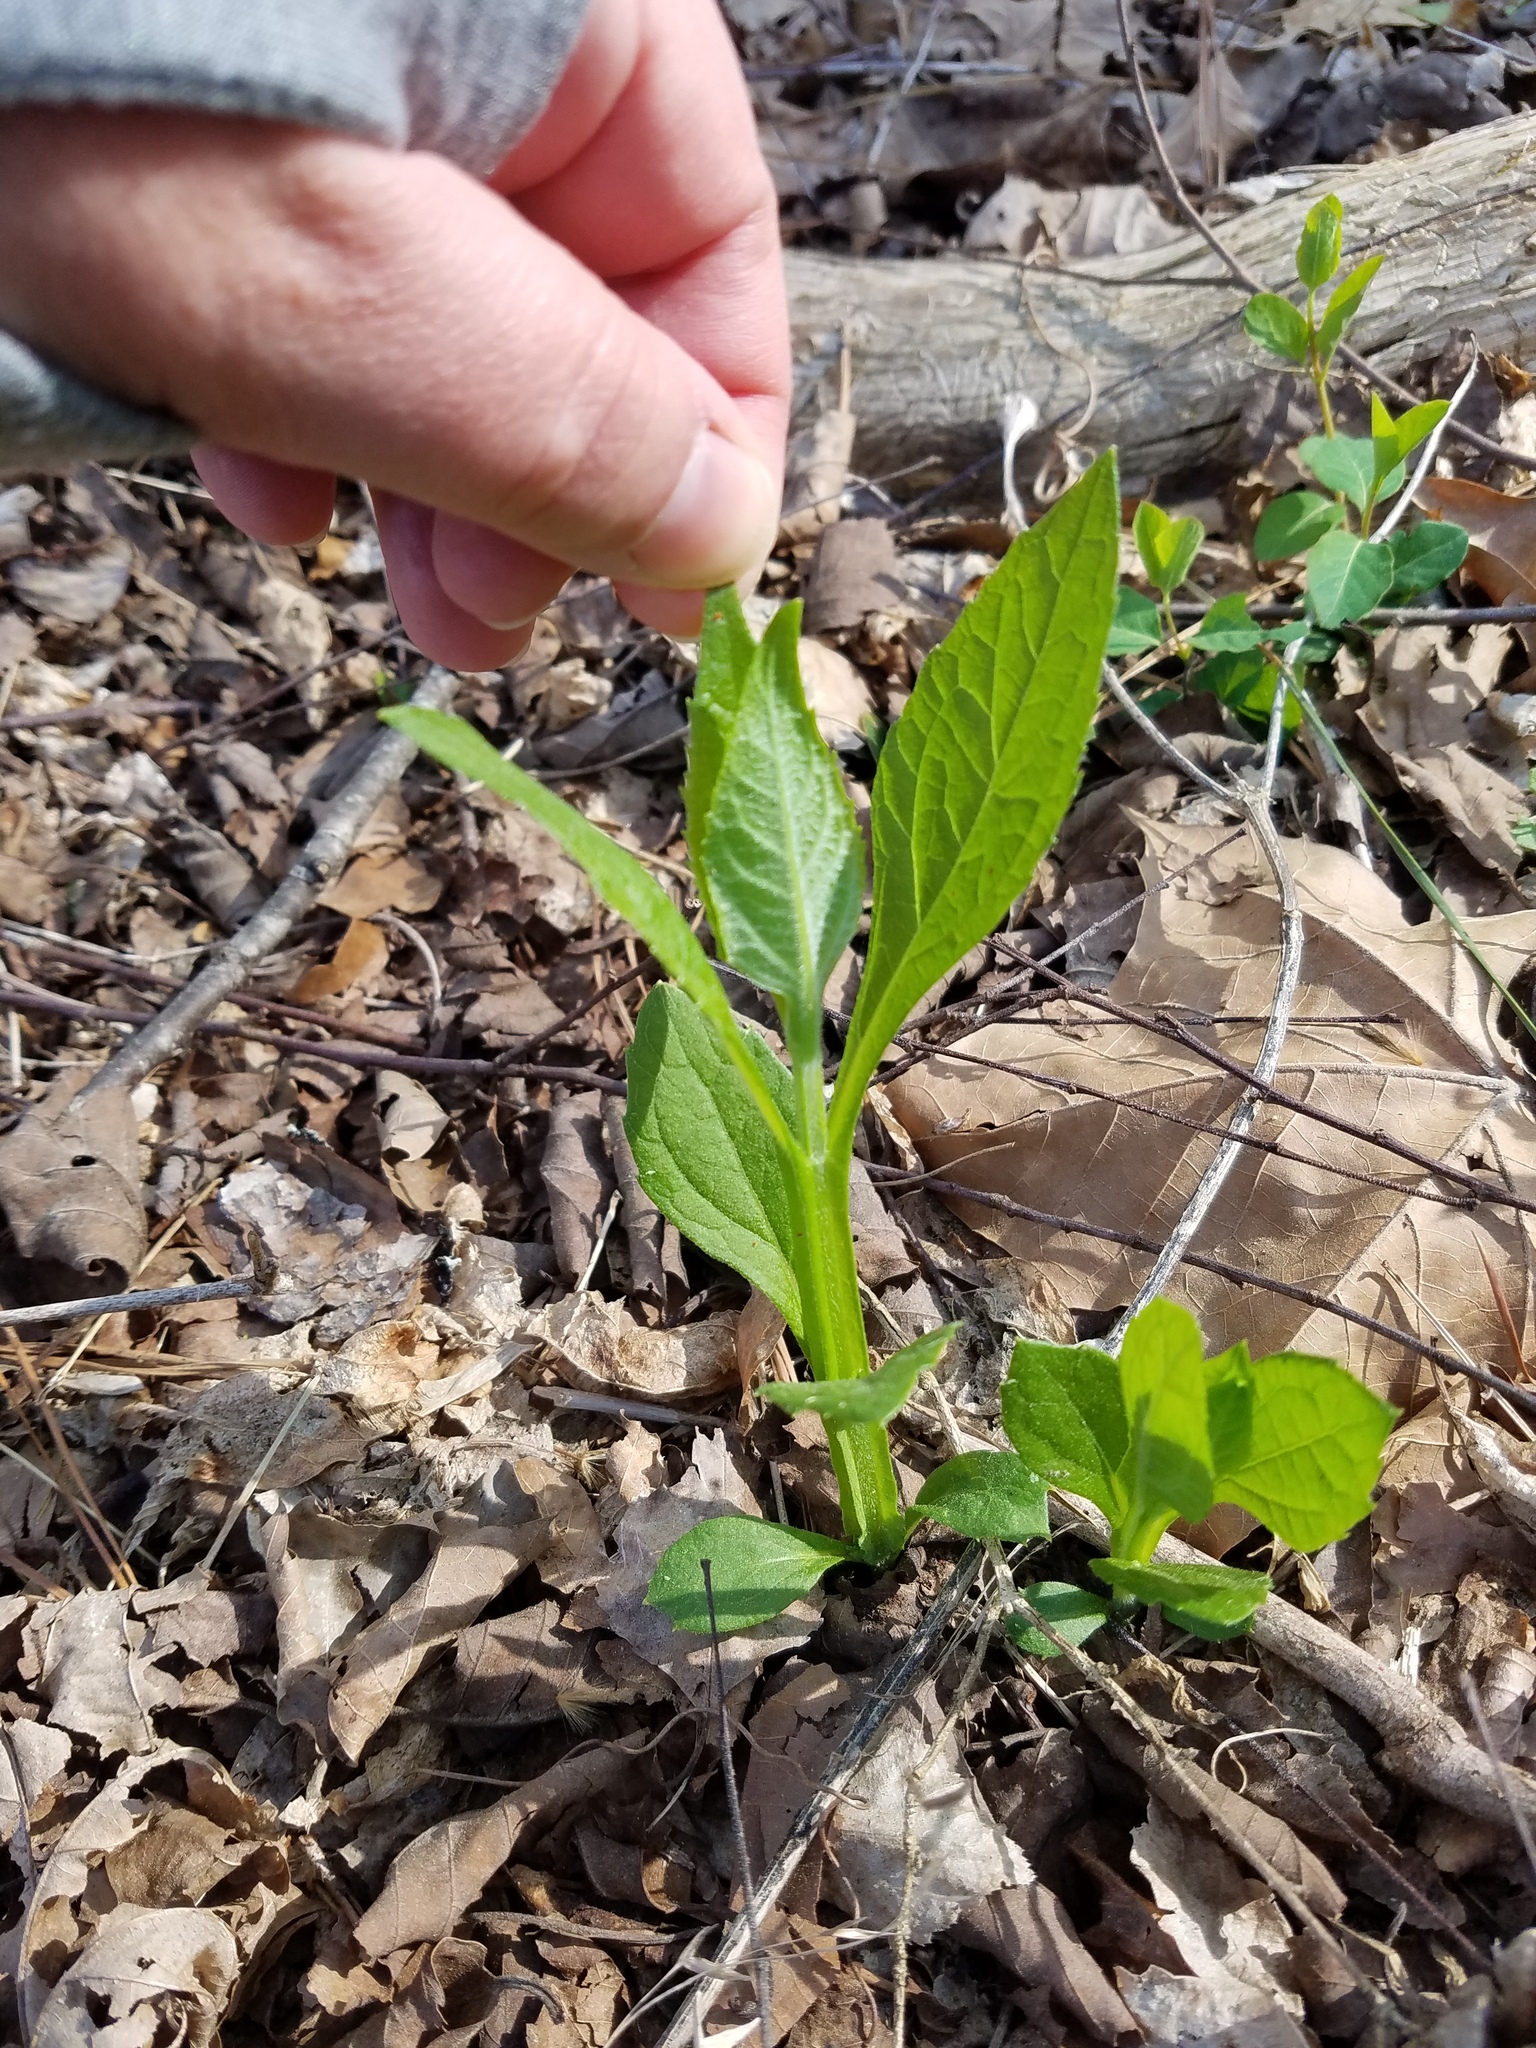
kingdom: Plantae
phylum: Tracheophyta
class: Magnoliopsida
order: Asterales
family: Asteraceae
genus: Verbesina
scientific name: Verbesina occidentalis
